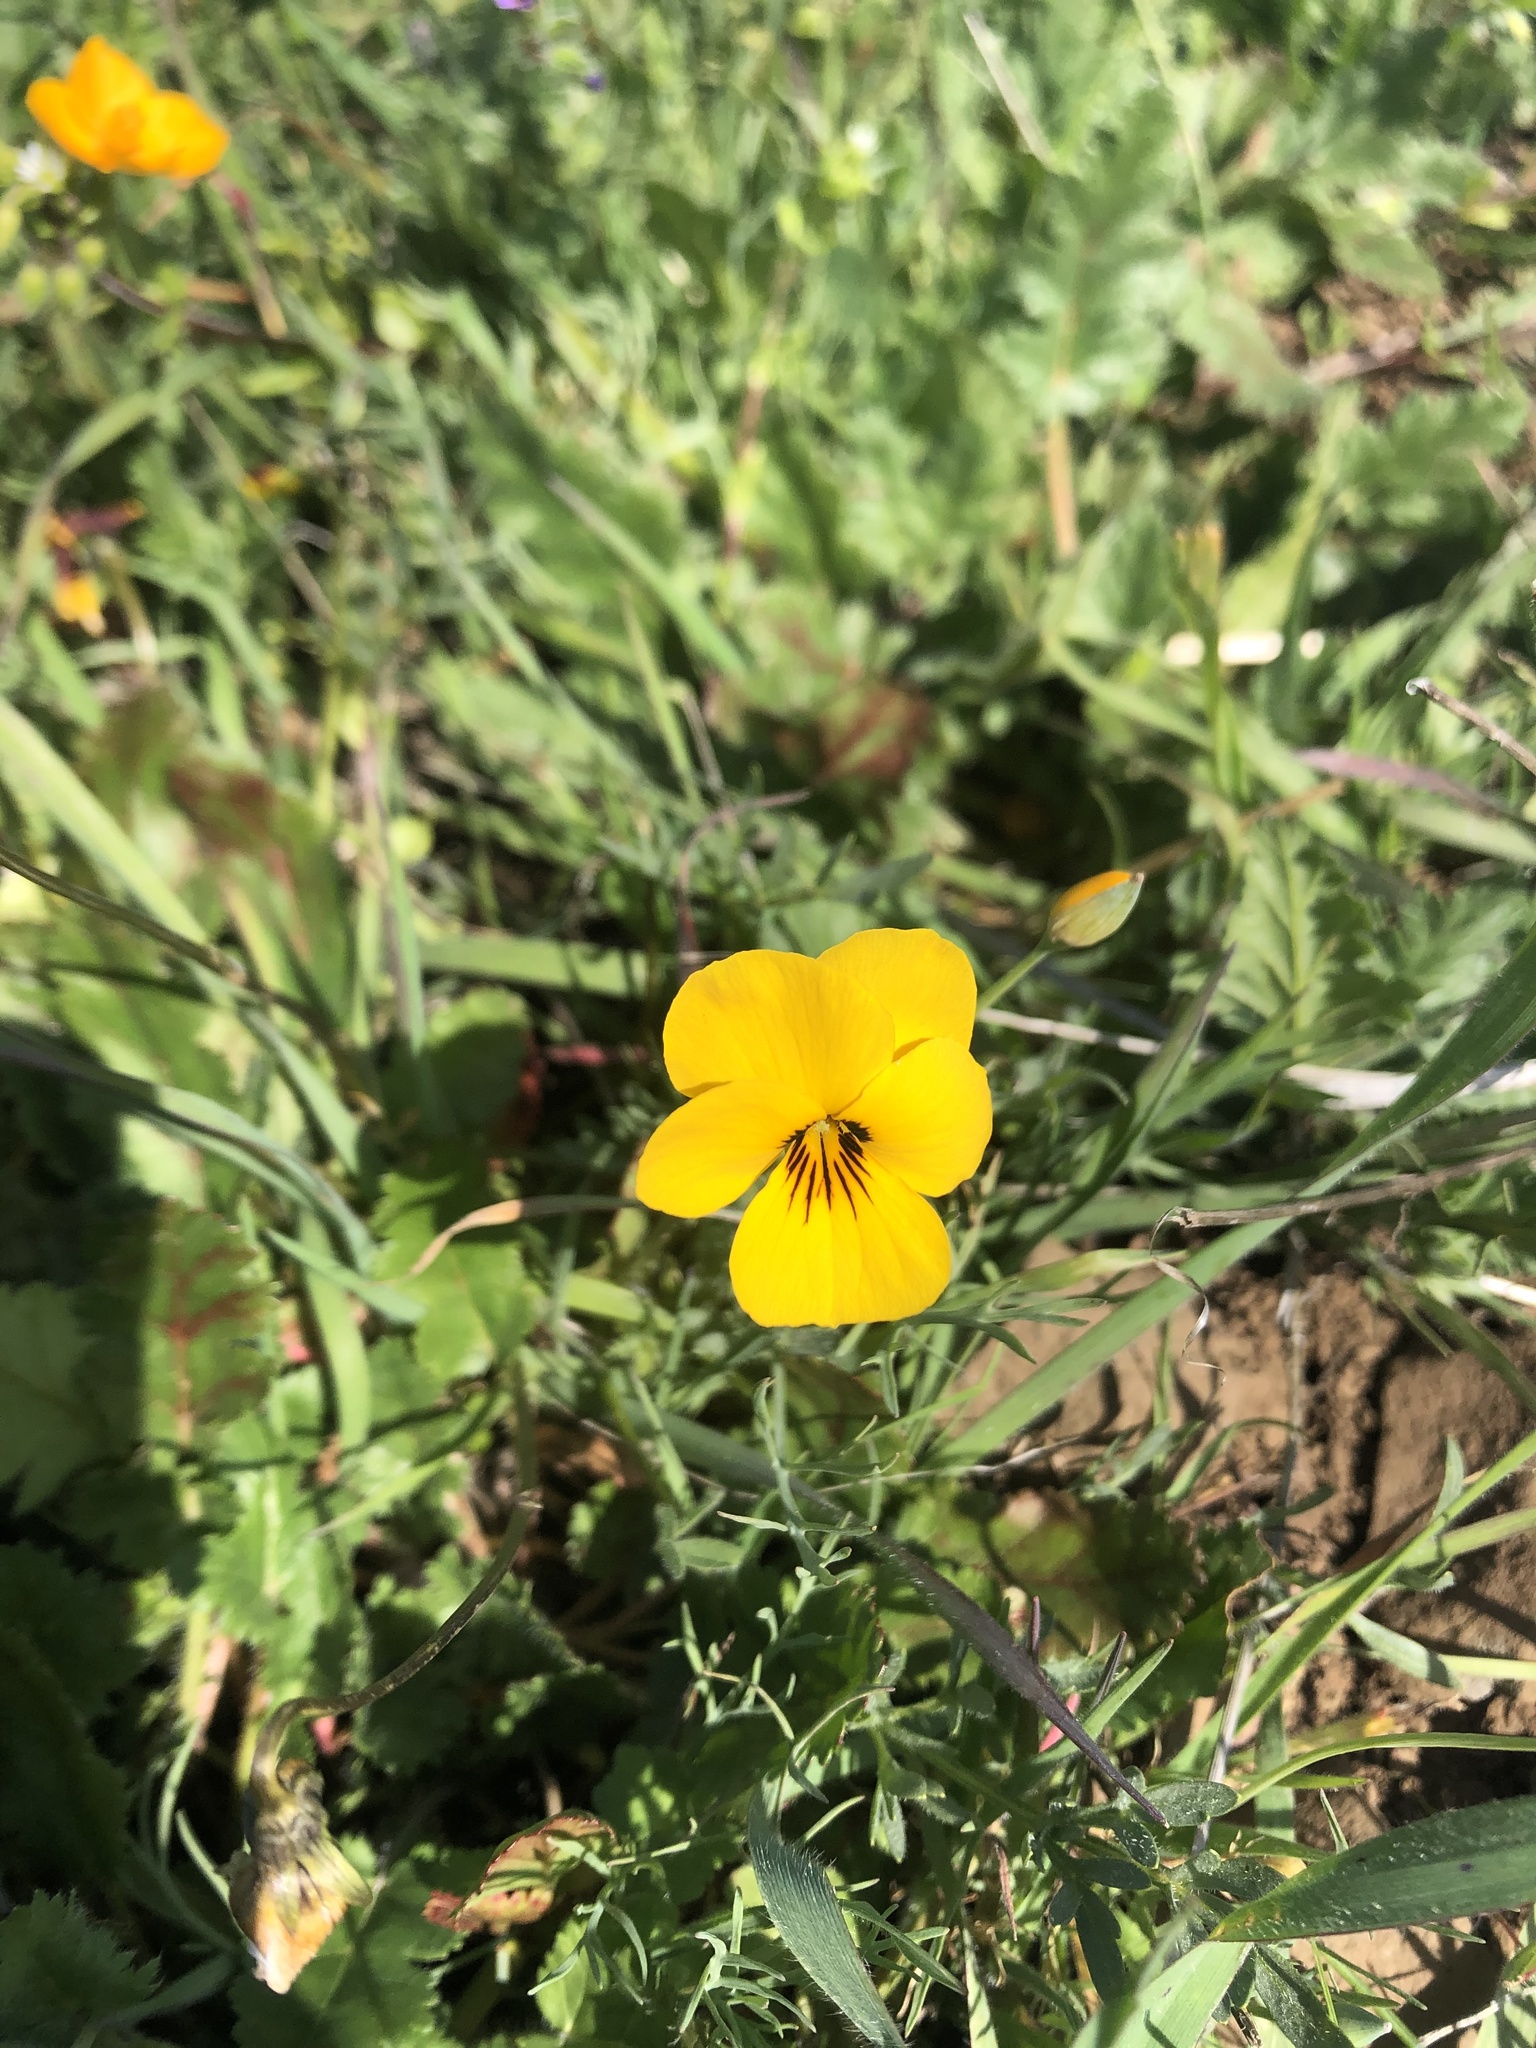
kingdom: Plantae
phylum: Tracheophyta
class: Magnoliopsida
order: Malpighiales
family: Violaceae
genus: Viola
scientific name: Viola douglasii
